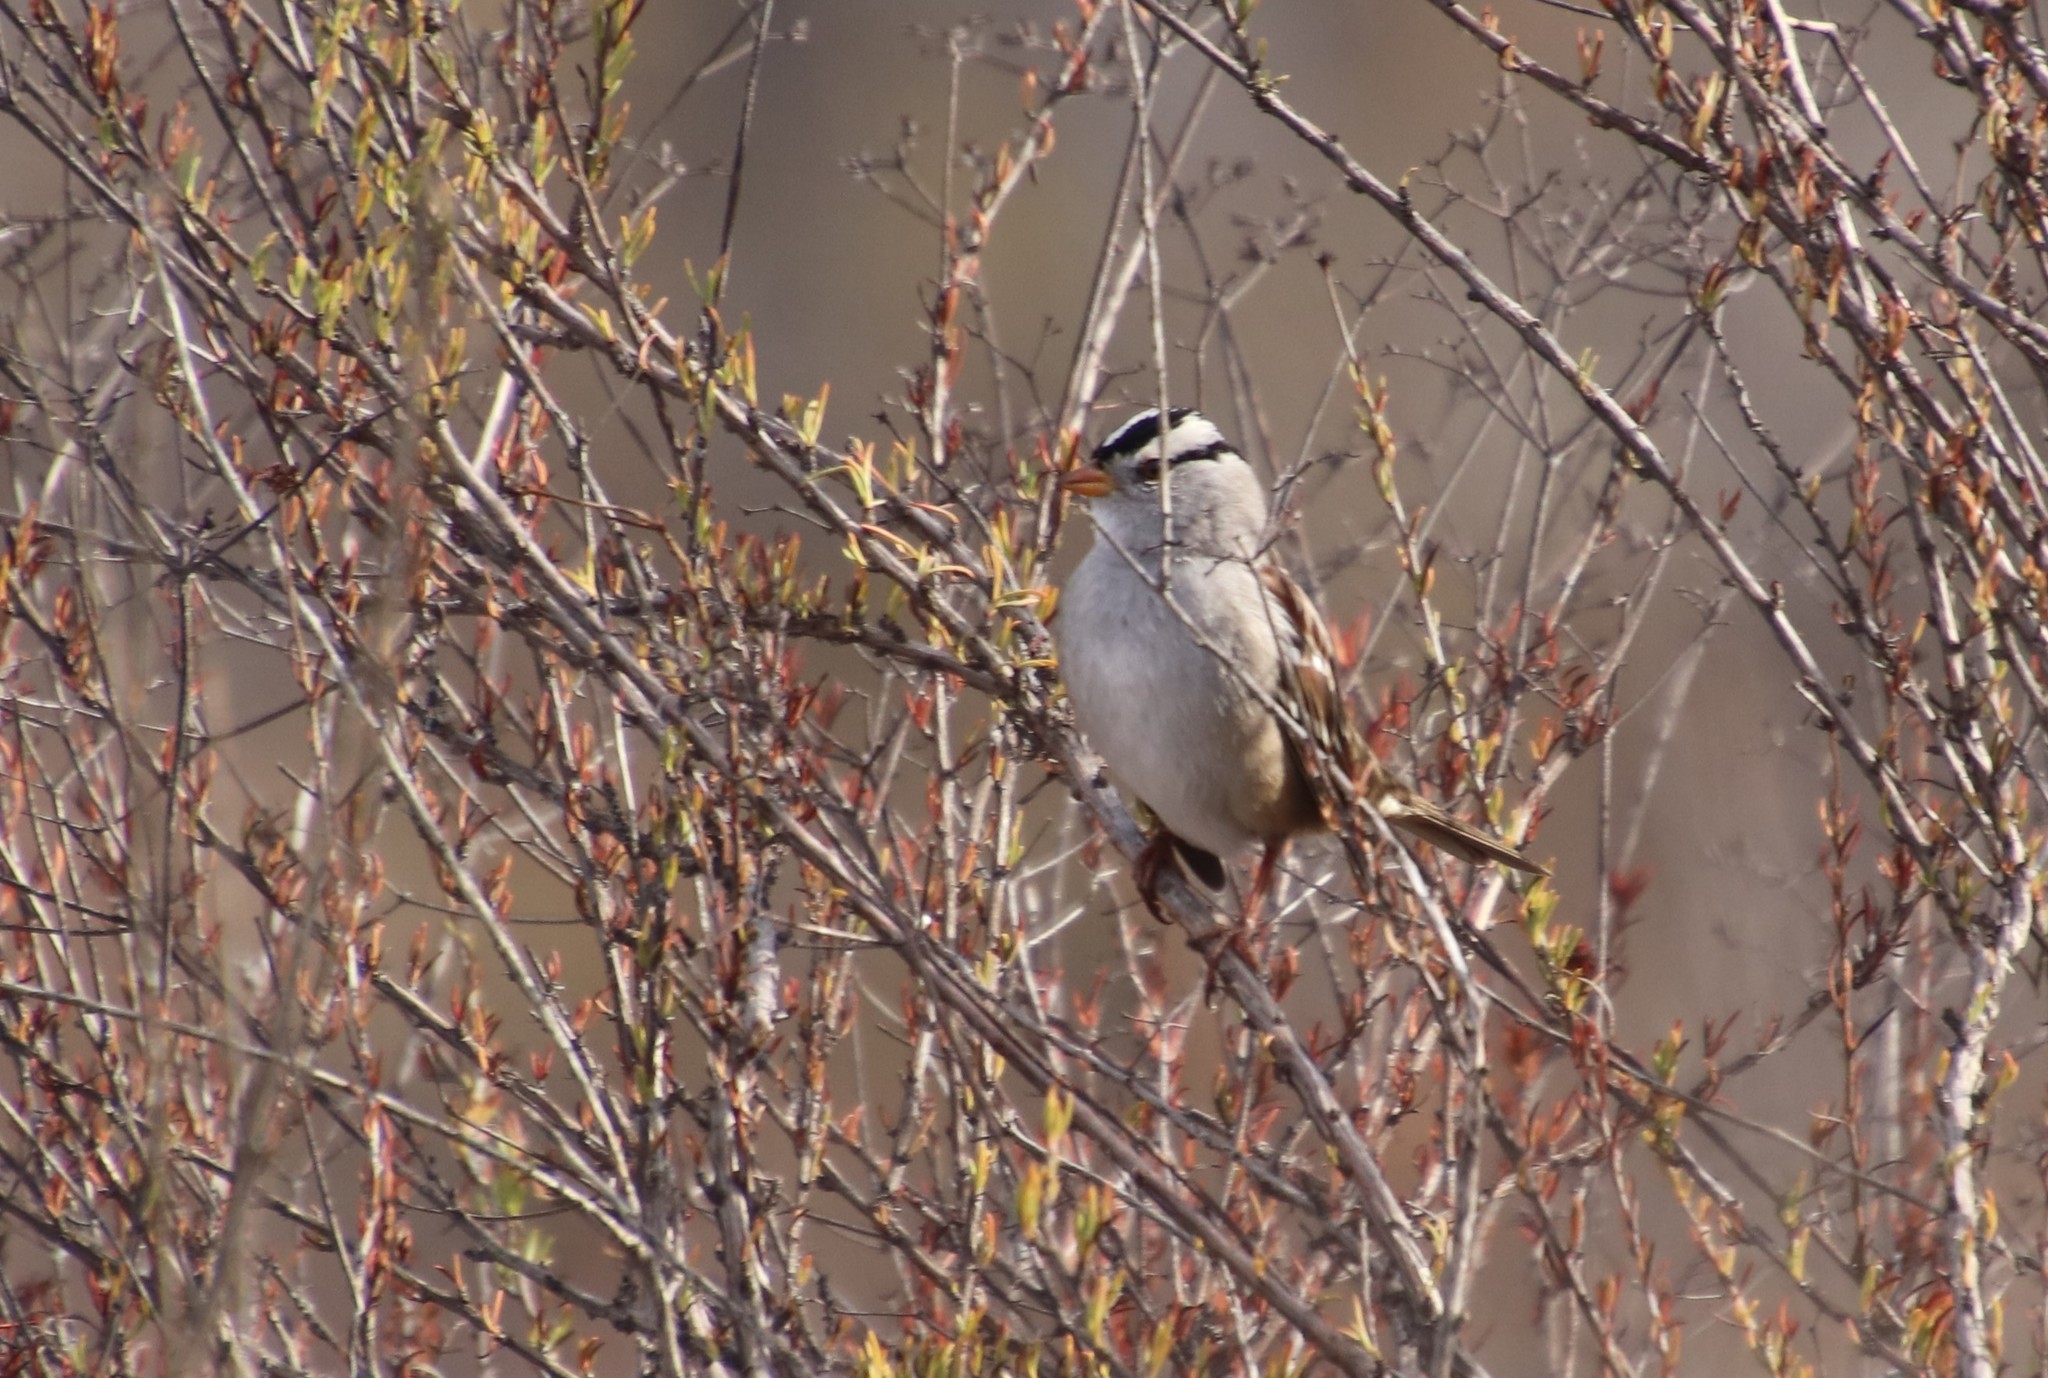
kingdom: Animalia
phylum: Chordata
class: Aves
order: Passeriformes
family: Passerellidae
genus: Zonotrichia
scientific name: Zonotrichia leucophrys
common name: White-crowned sparrow
